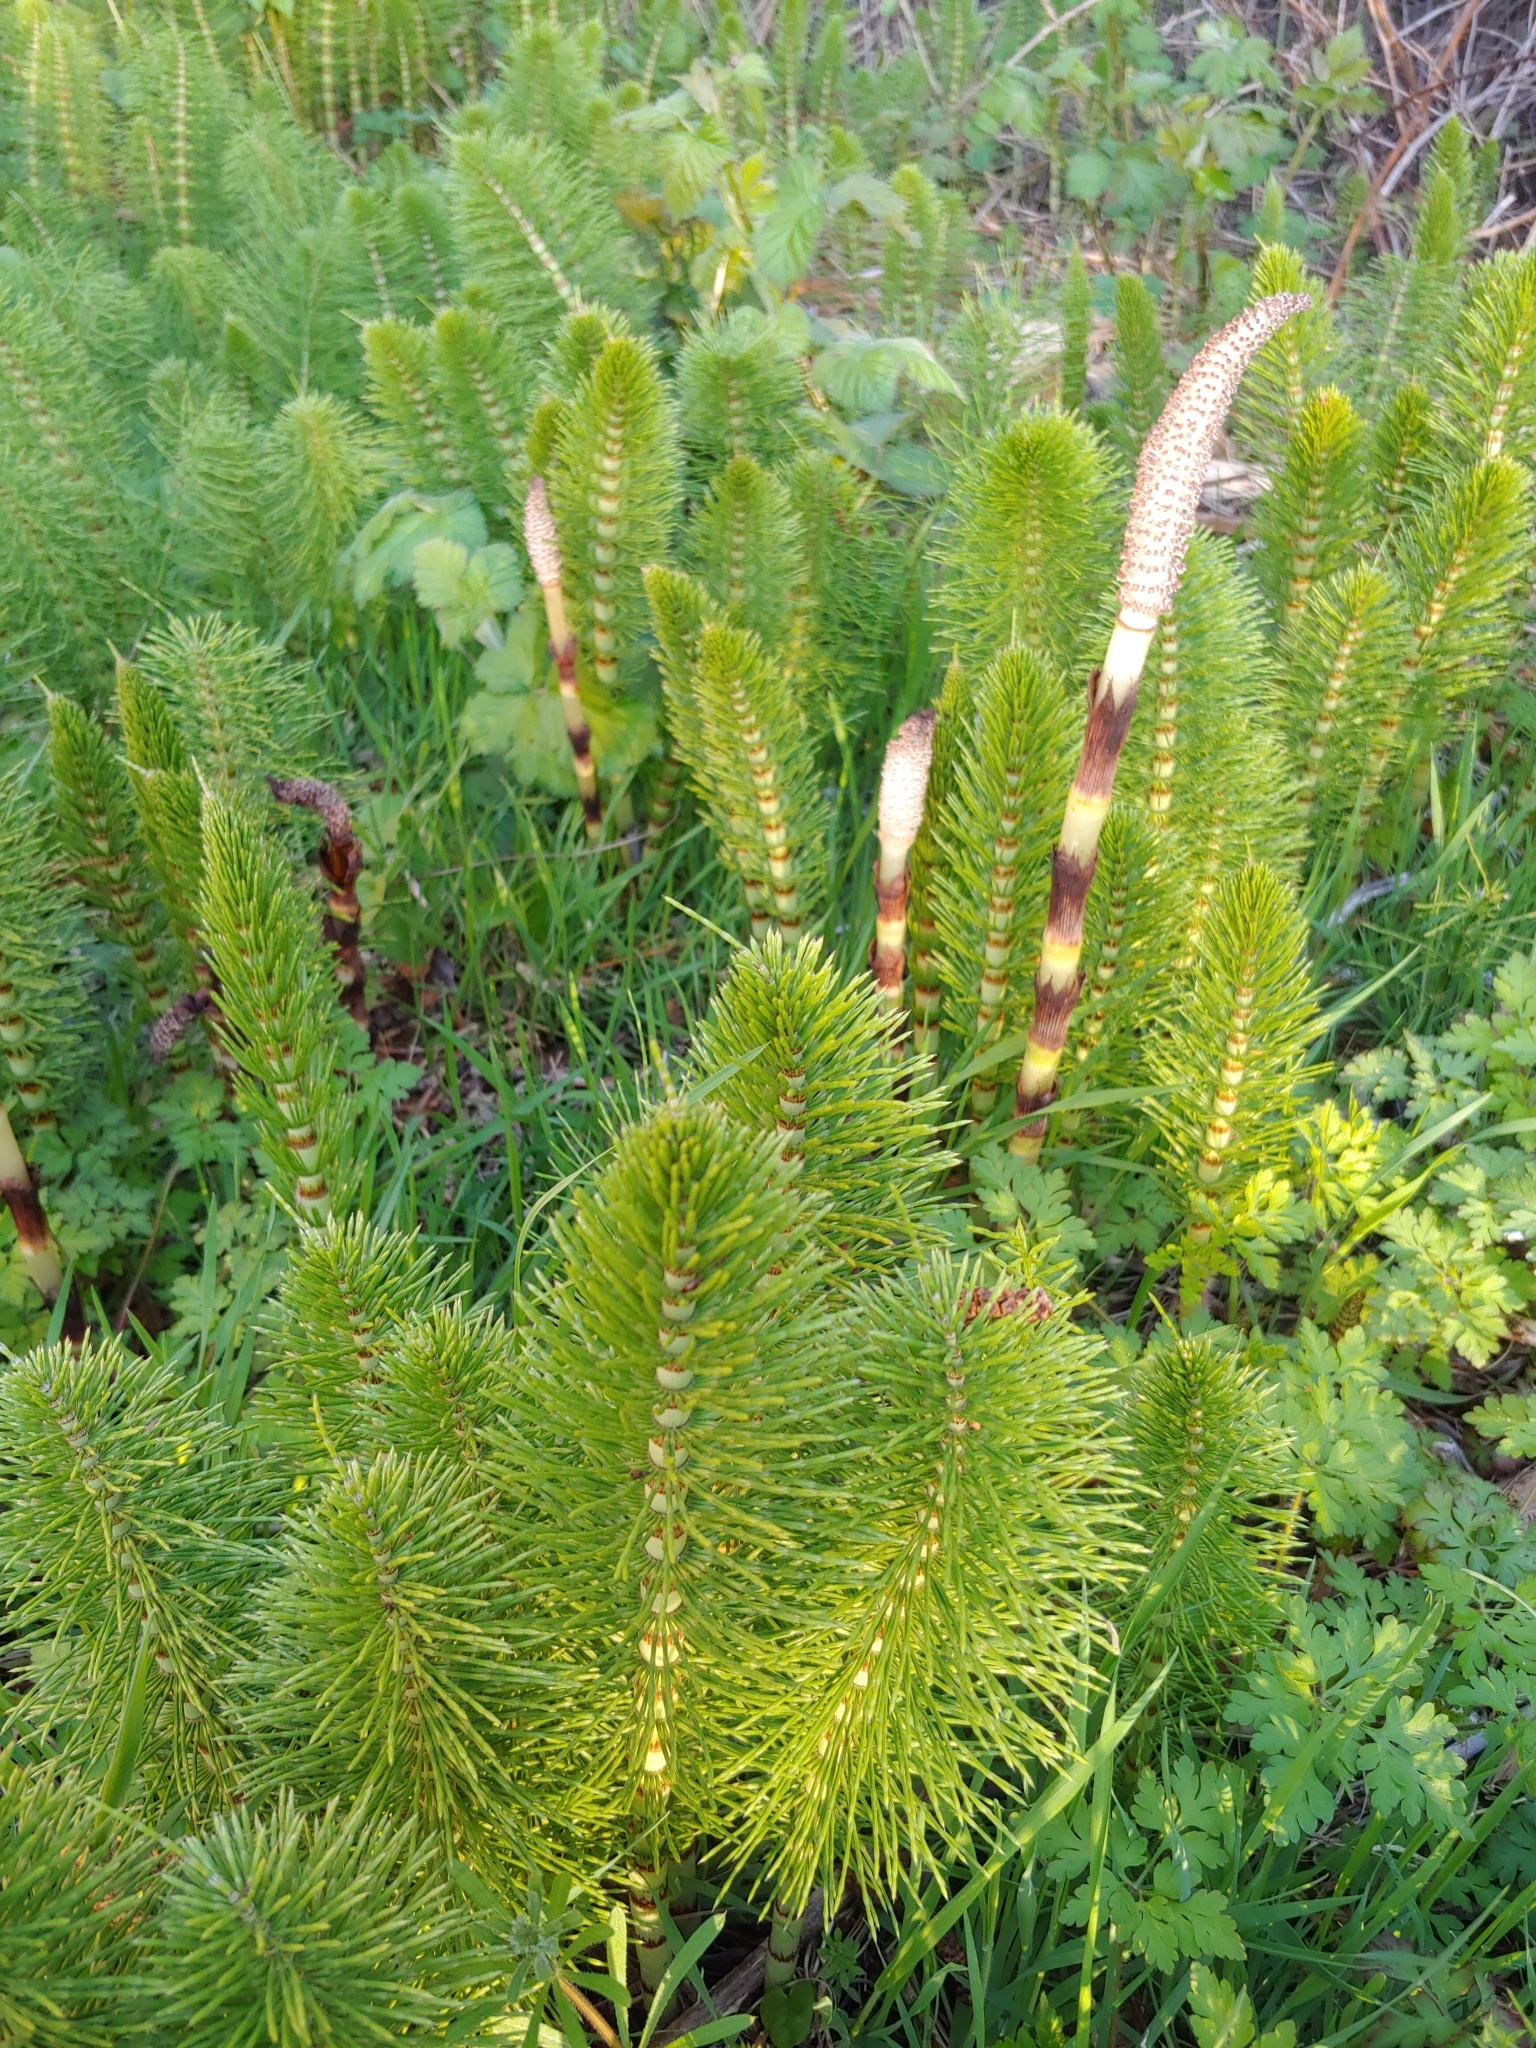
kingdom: Plantae
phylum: Tracheophyta
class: Polypodiopsida
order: Equisetales
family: Equisetaceae
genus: Equisetum
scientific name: Equisetum braunii
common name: Braun's horsetail
